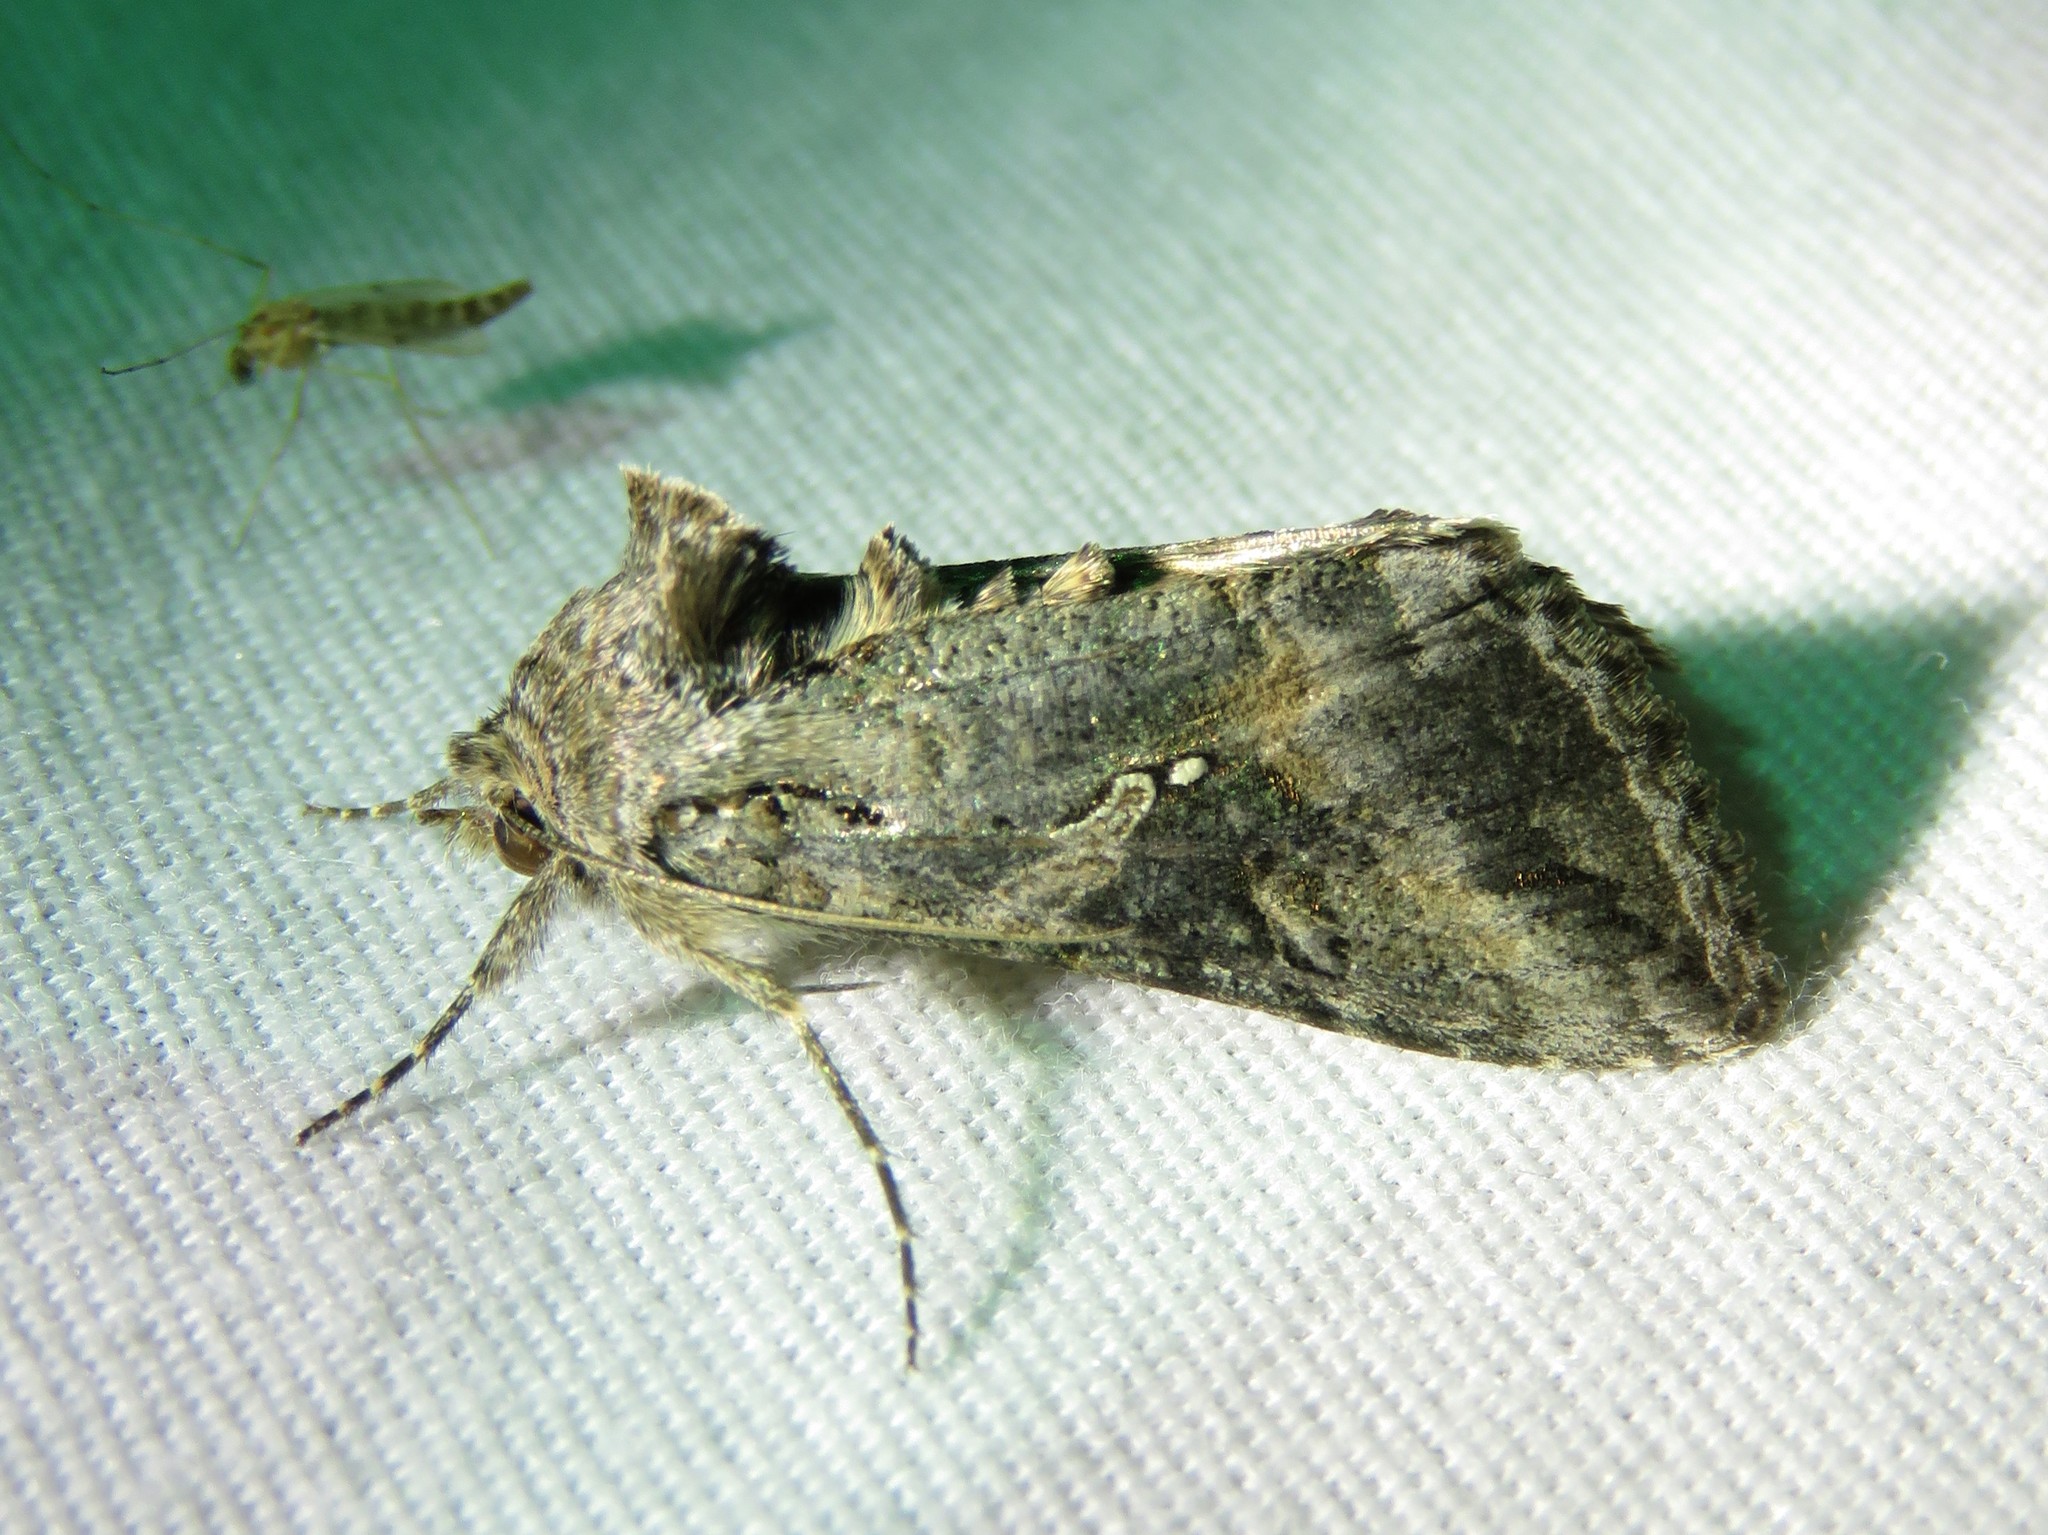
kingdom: Animalia
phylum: Arthropoda
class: Insecta
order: Lepidoptera
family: Noctuidae
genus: Rachiplusia
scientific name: Rachiplusia ou
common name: Gray looper moth
